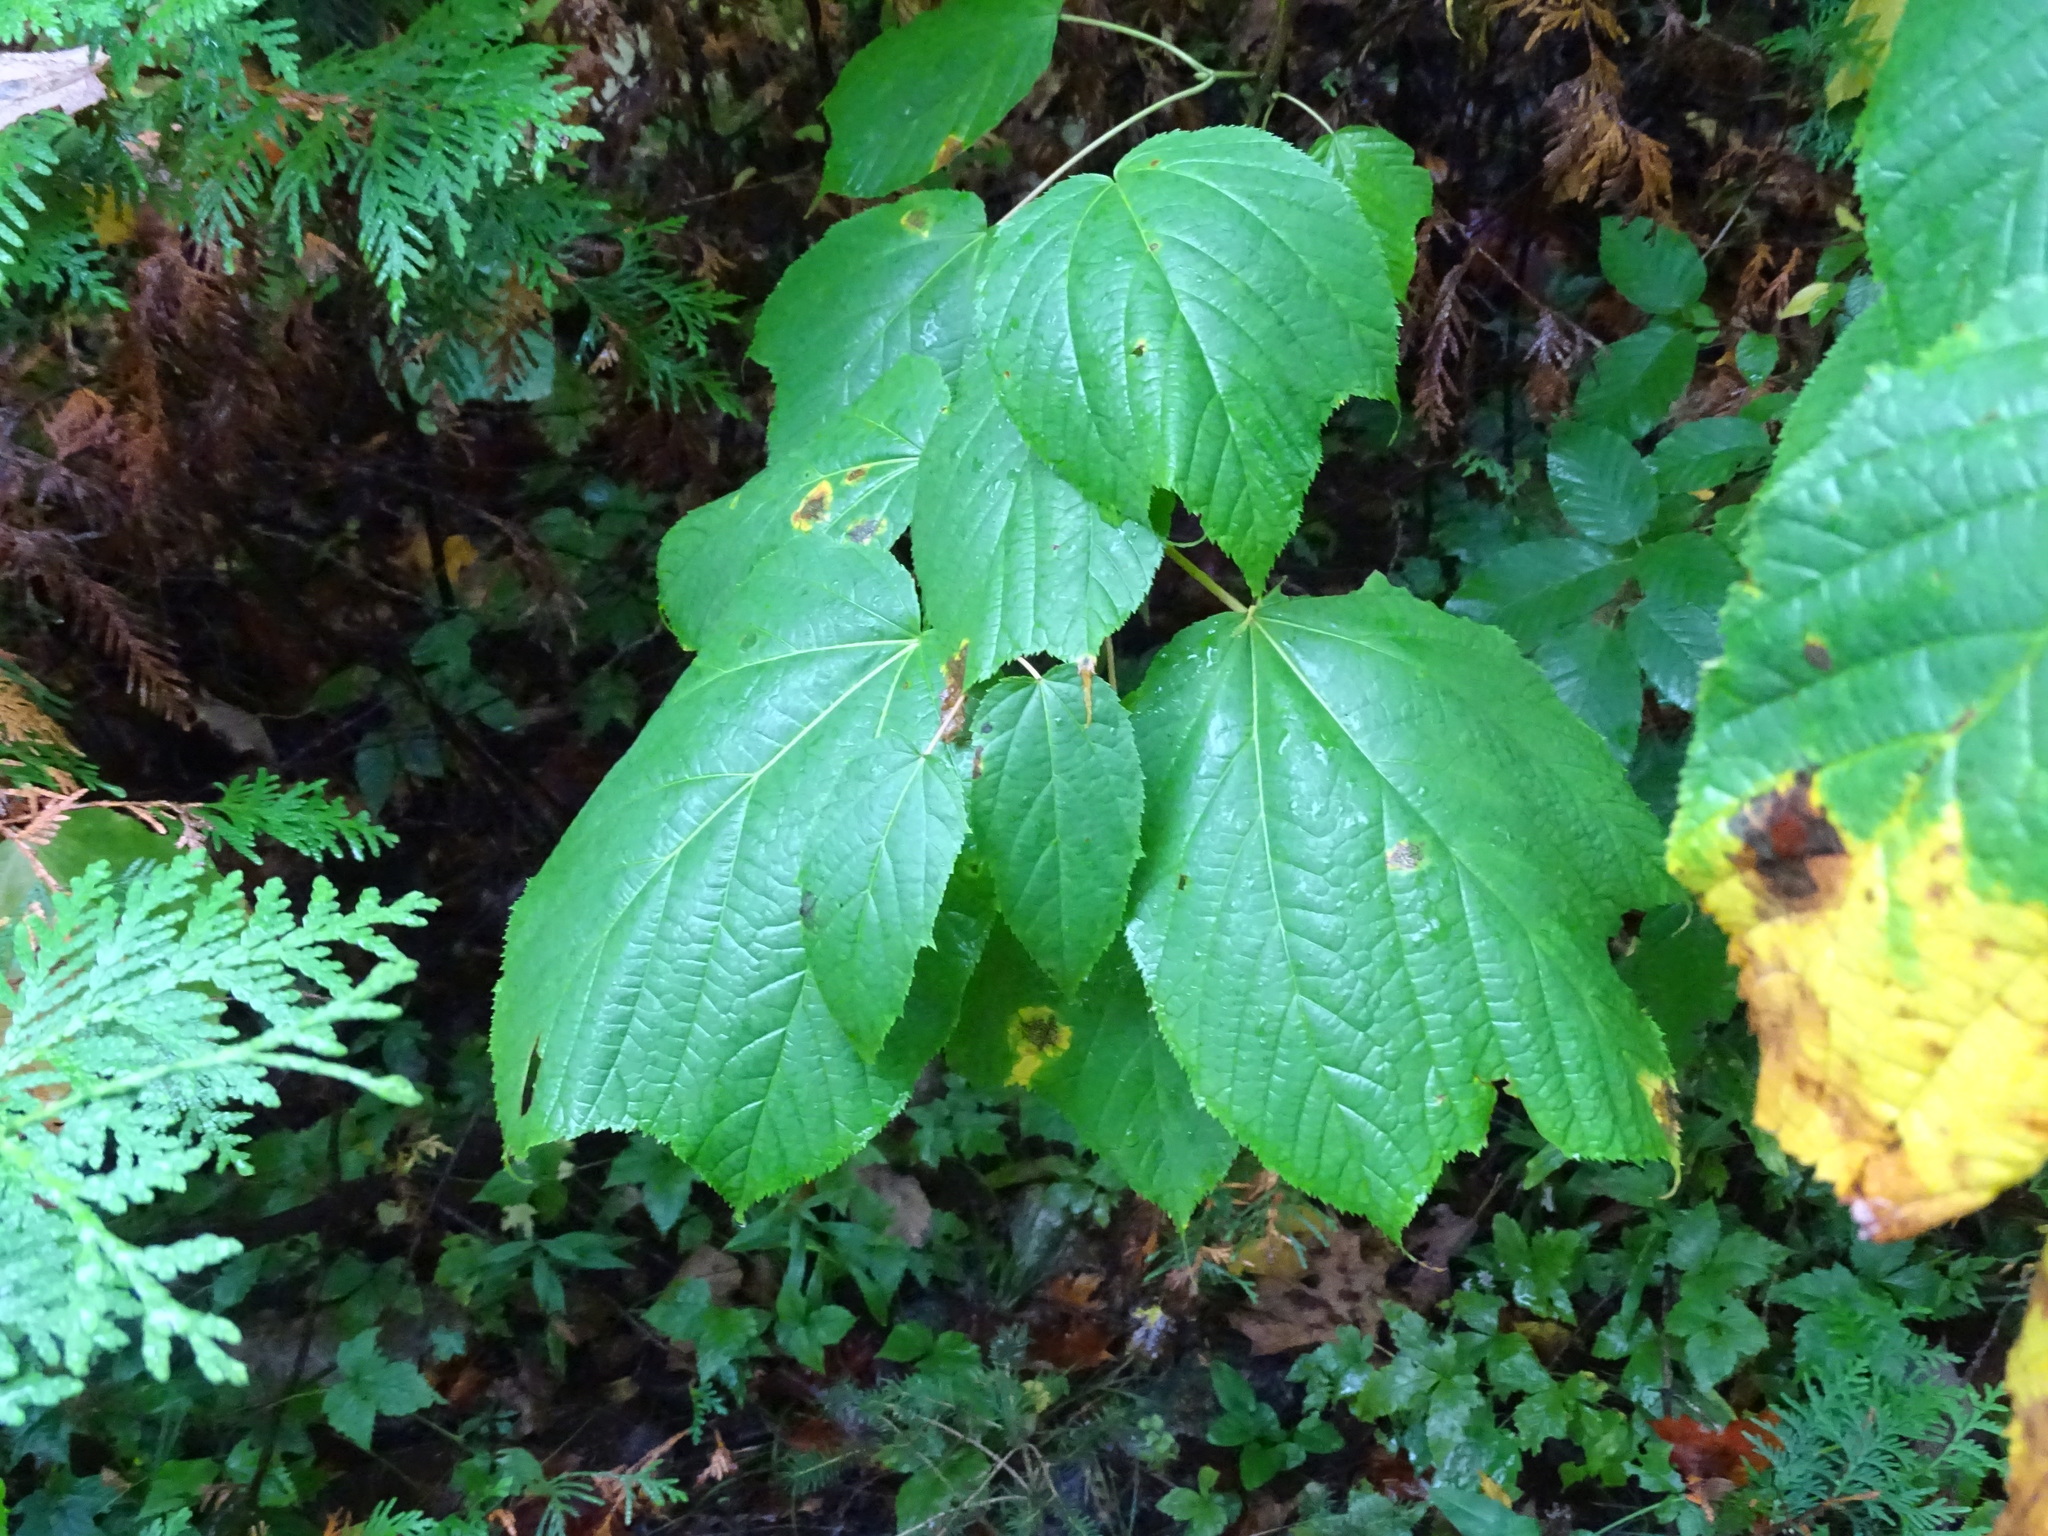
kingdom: Plantae
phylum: Tracheophyta
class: Magnoliopsida
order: Sapindales
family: Sapindaceae
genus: Acer
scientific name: Acer pensylvanicum
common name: Moosewood
